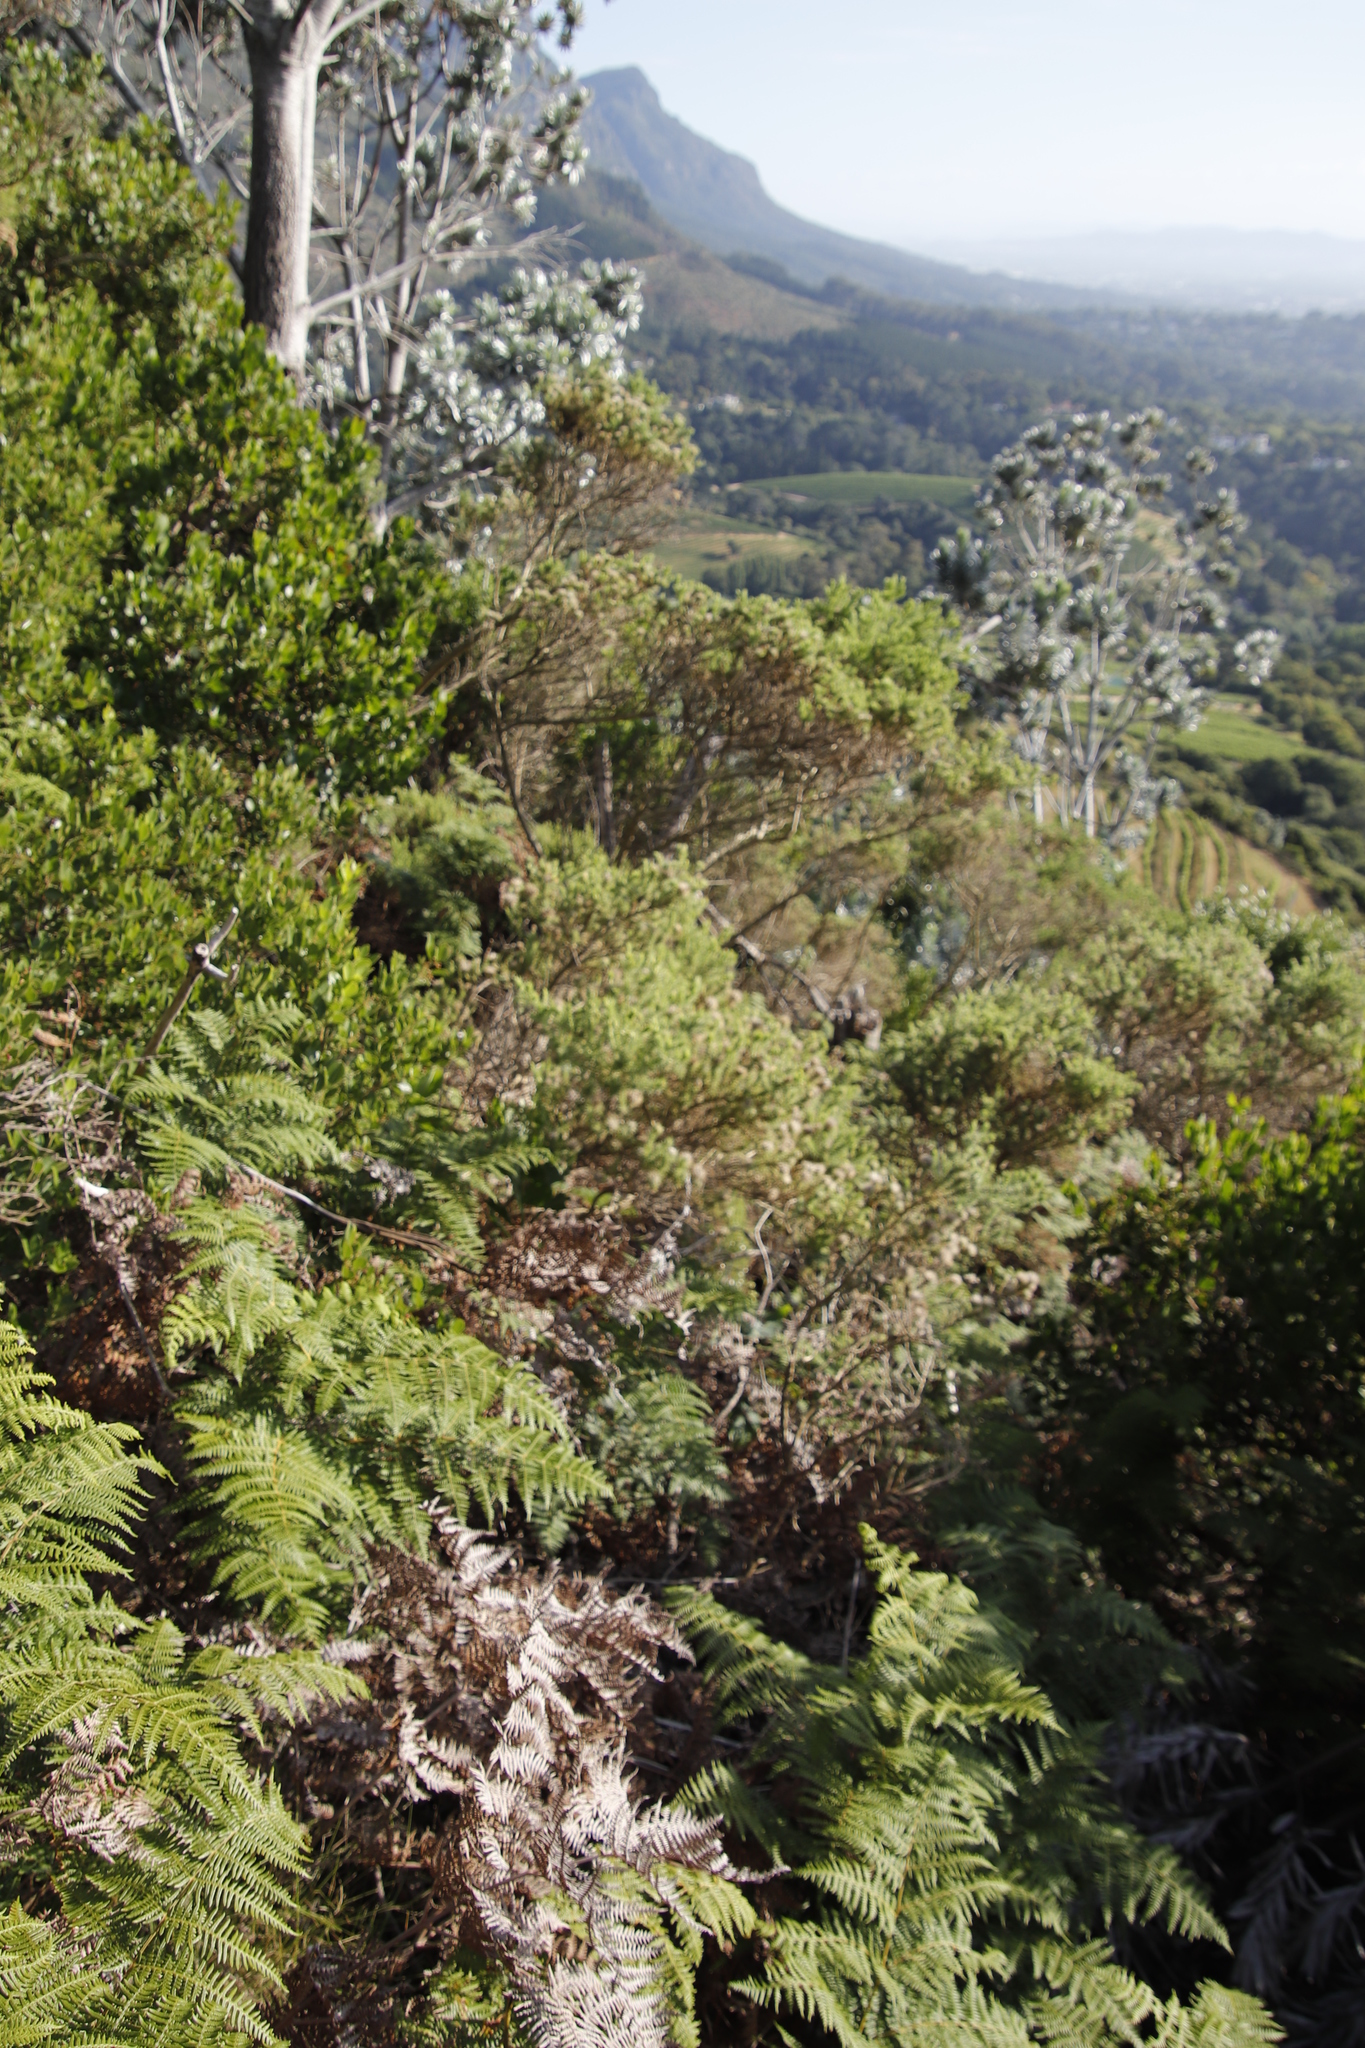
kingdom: Plantae
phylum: Tracheophyta
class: Polypodiopsida
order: Polypodiales
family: Dennstaedtiaceae
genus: Pteridium
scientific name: Pteridium aquilinum
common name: Bracken
